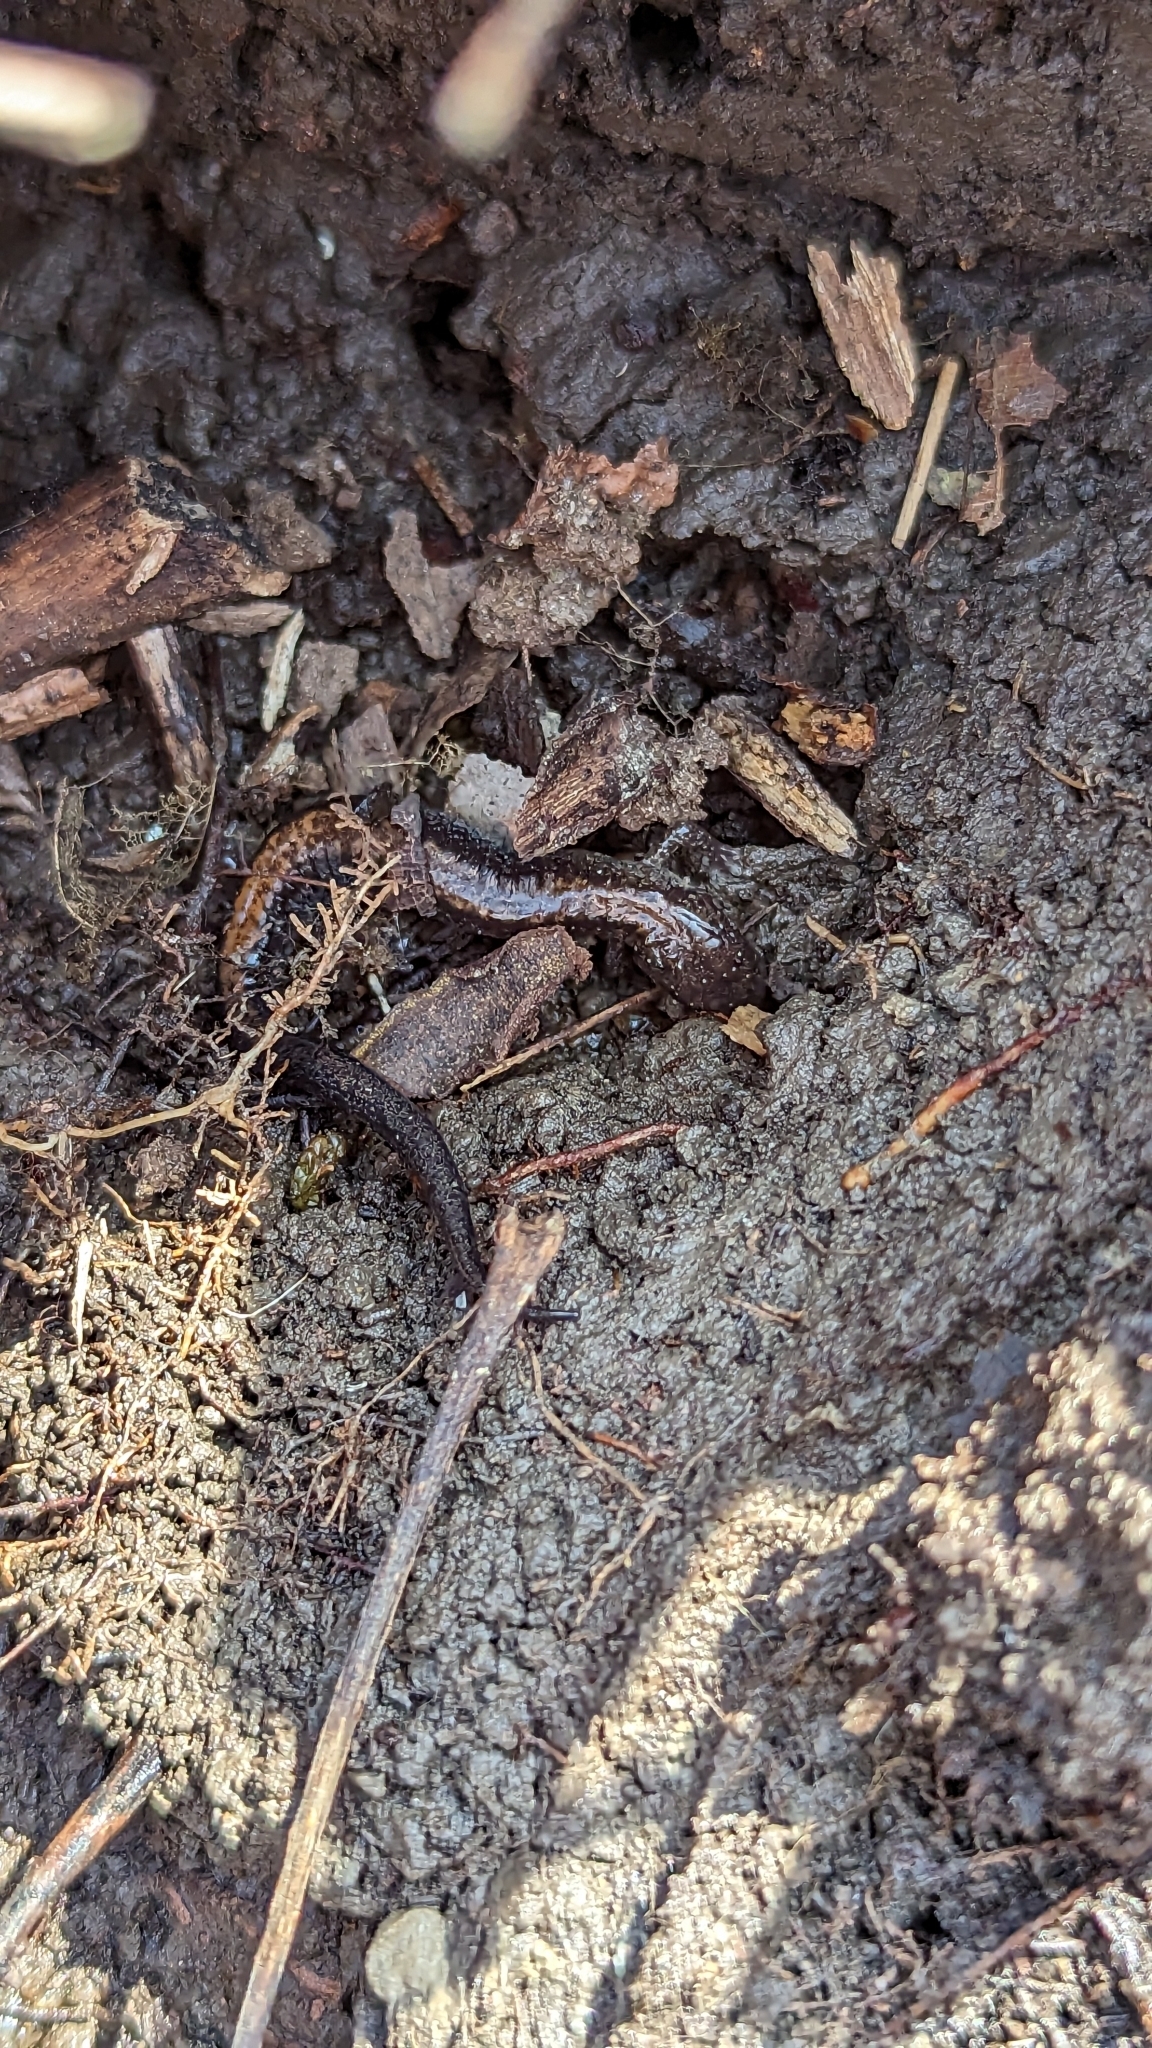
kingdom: Animalia
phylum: Chordata
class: Amphibia
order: Caudata
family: Plethodontidae
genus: Plethodon
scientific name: Plethodon cinereus
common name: Redback salamander
